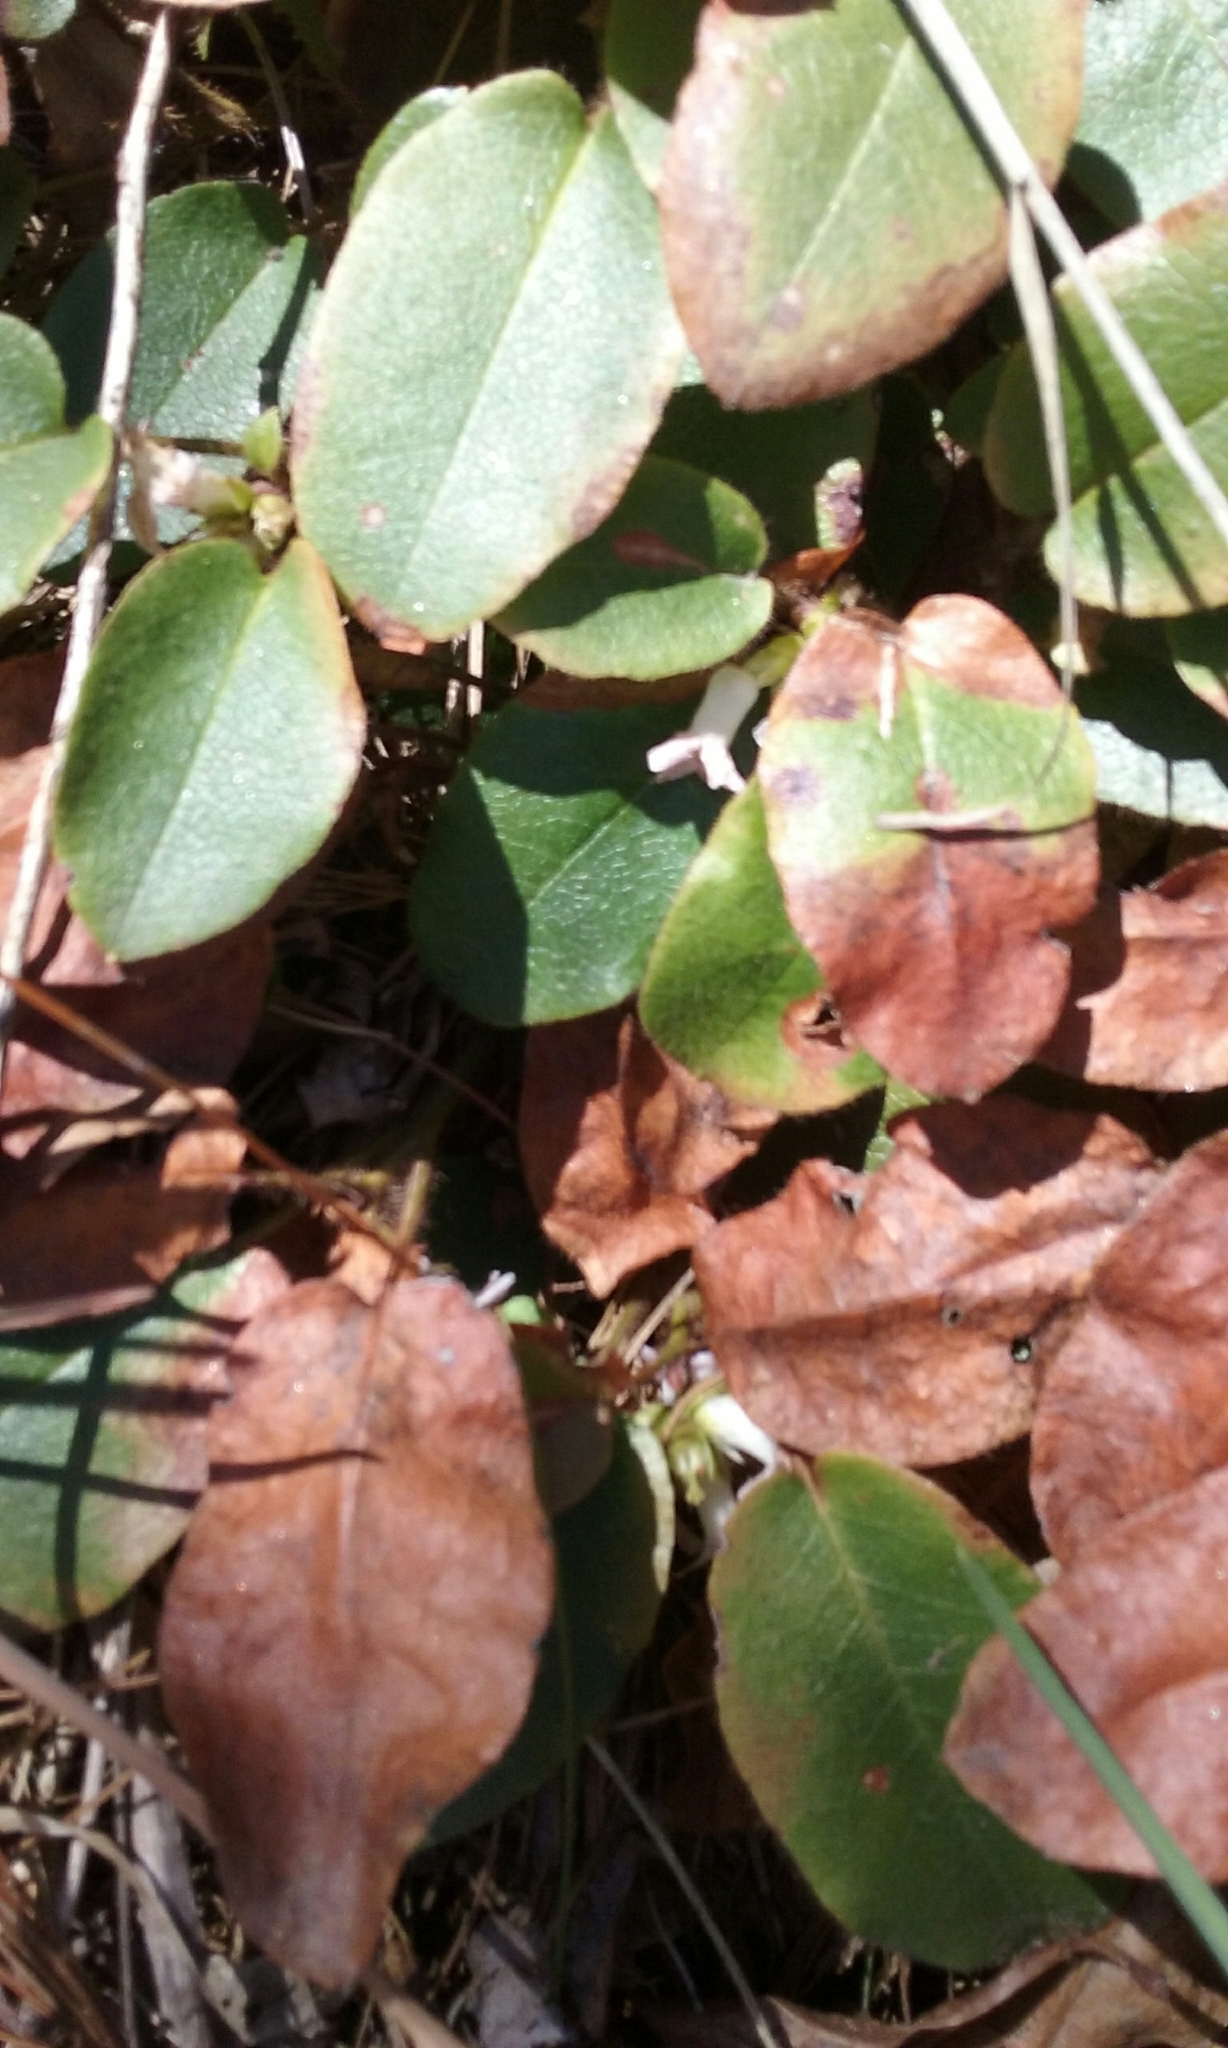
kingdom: Plantae
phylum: Tracheophyta
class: Magnoliopsida
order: Ericales
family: Ericaceae
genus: Epigaea
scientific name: Epigaea repens
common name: Gravelroot
